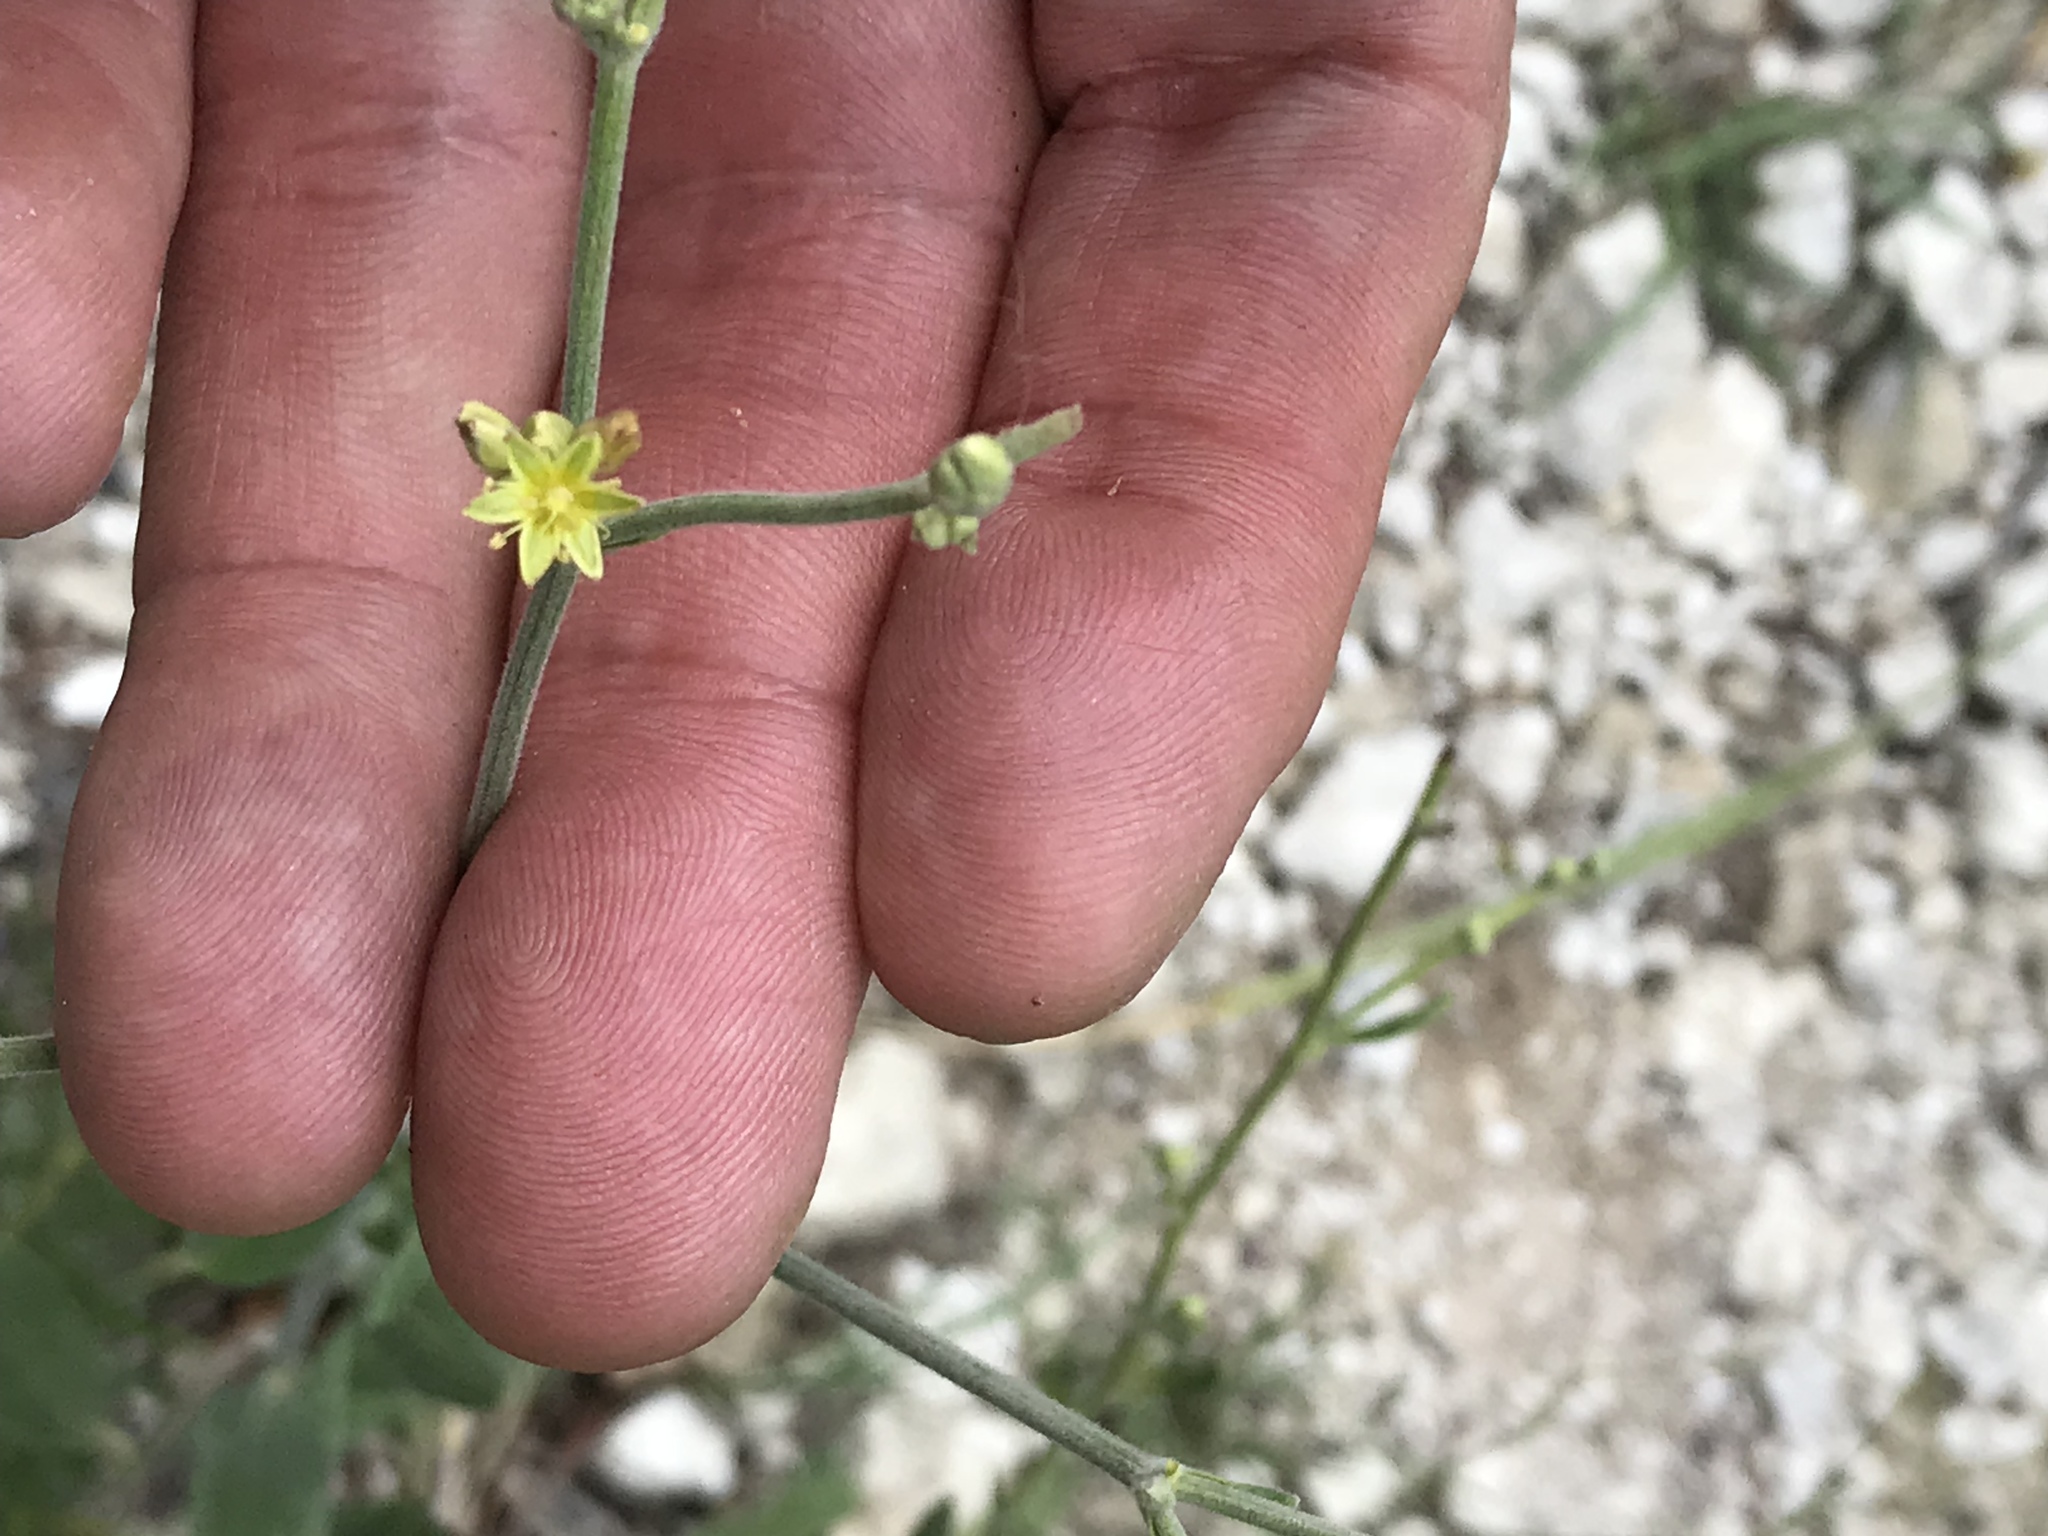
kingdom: Plantae
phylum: Tracheophyta
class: Magnoliopsida
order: Caryophyllales
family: Polygonaceae
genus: Eriogonum
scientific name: Eriogonum longifolium
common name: Longleaf wild buckwheat
